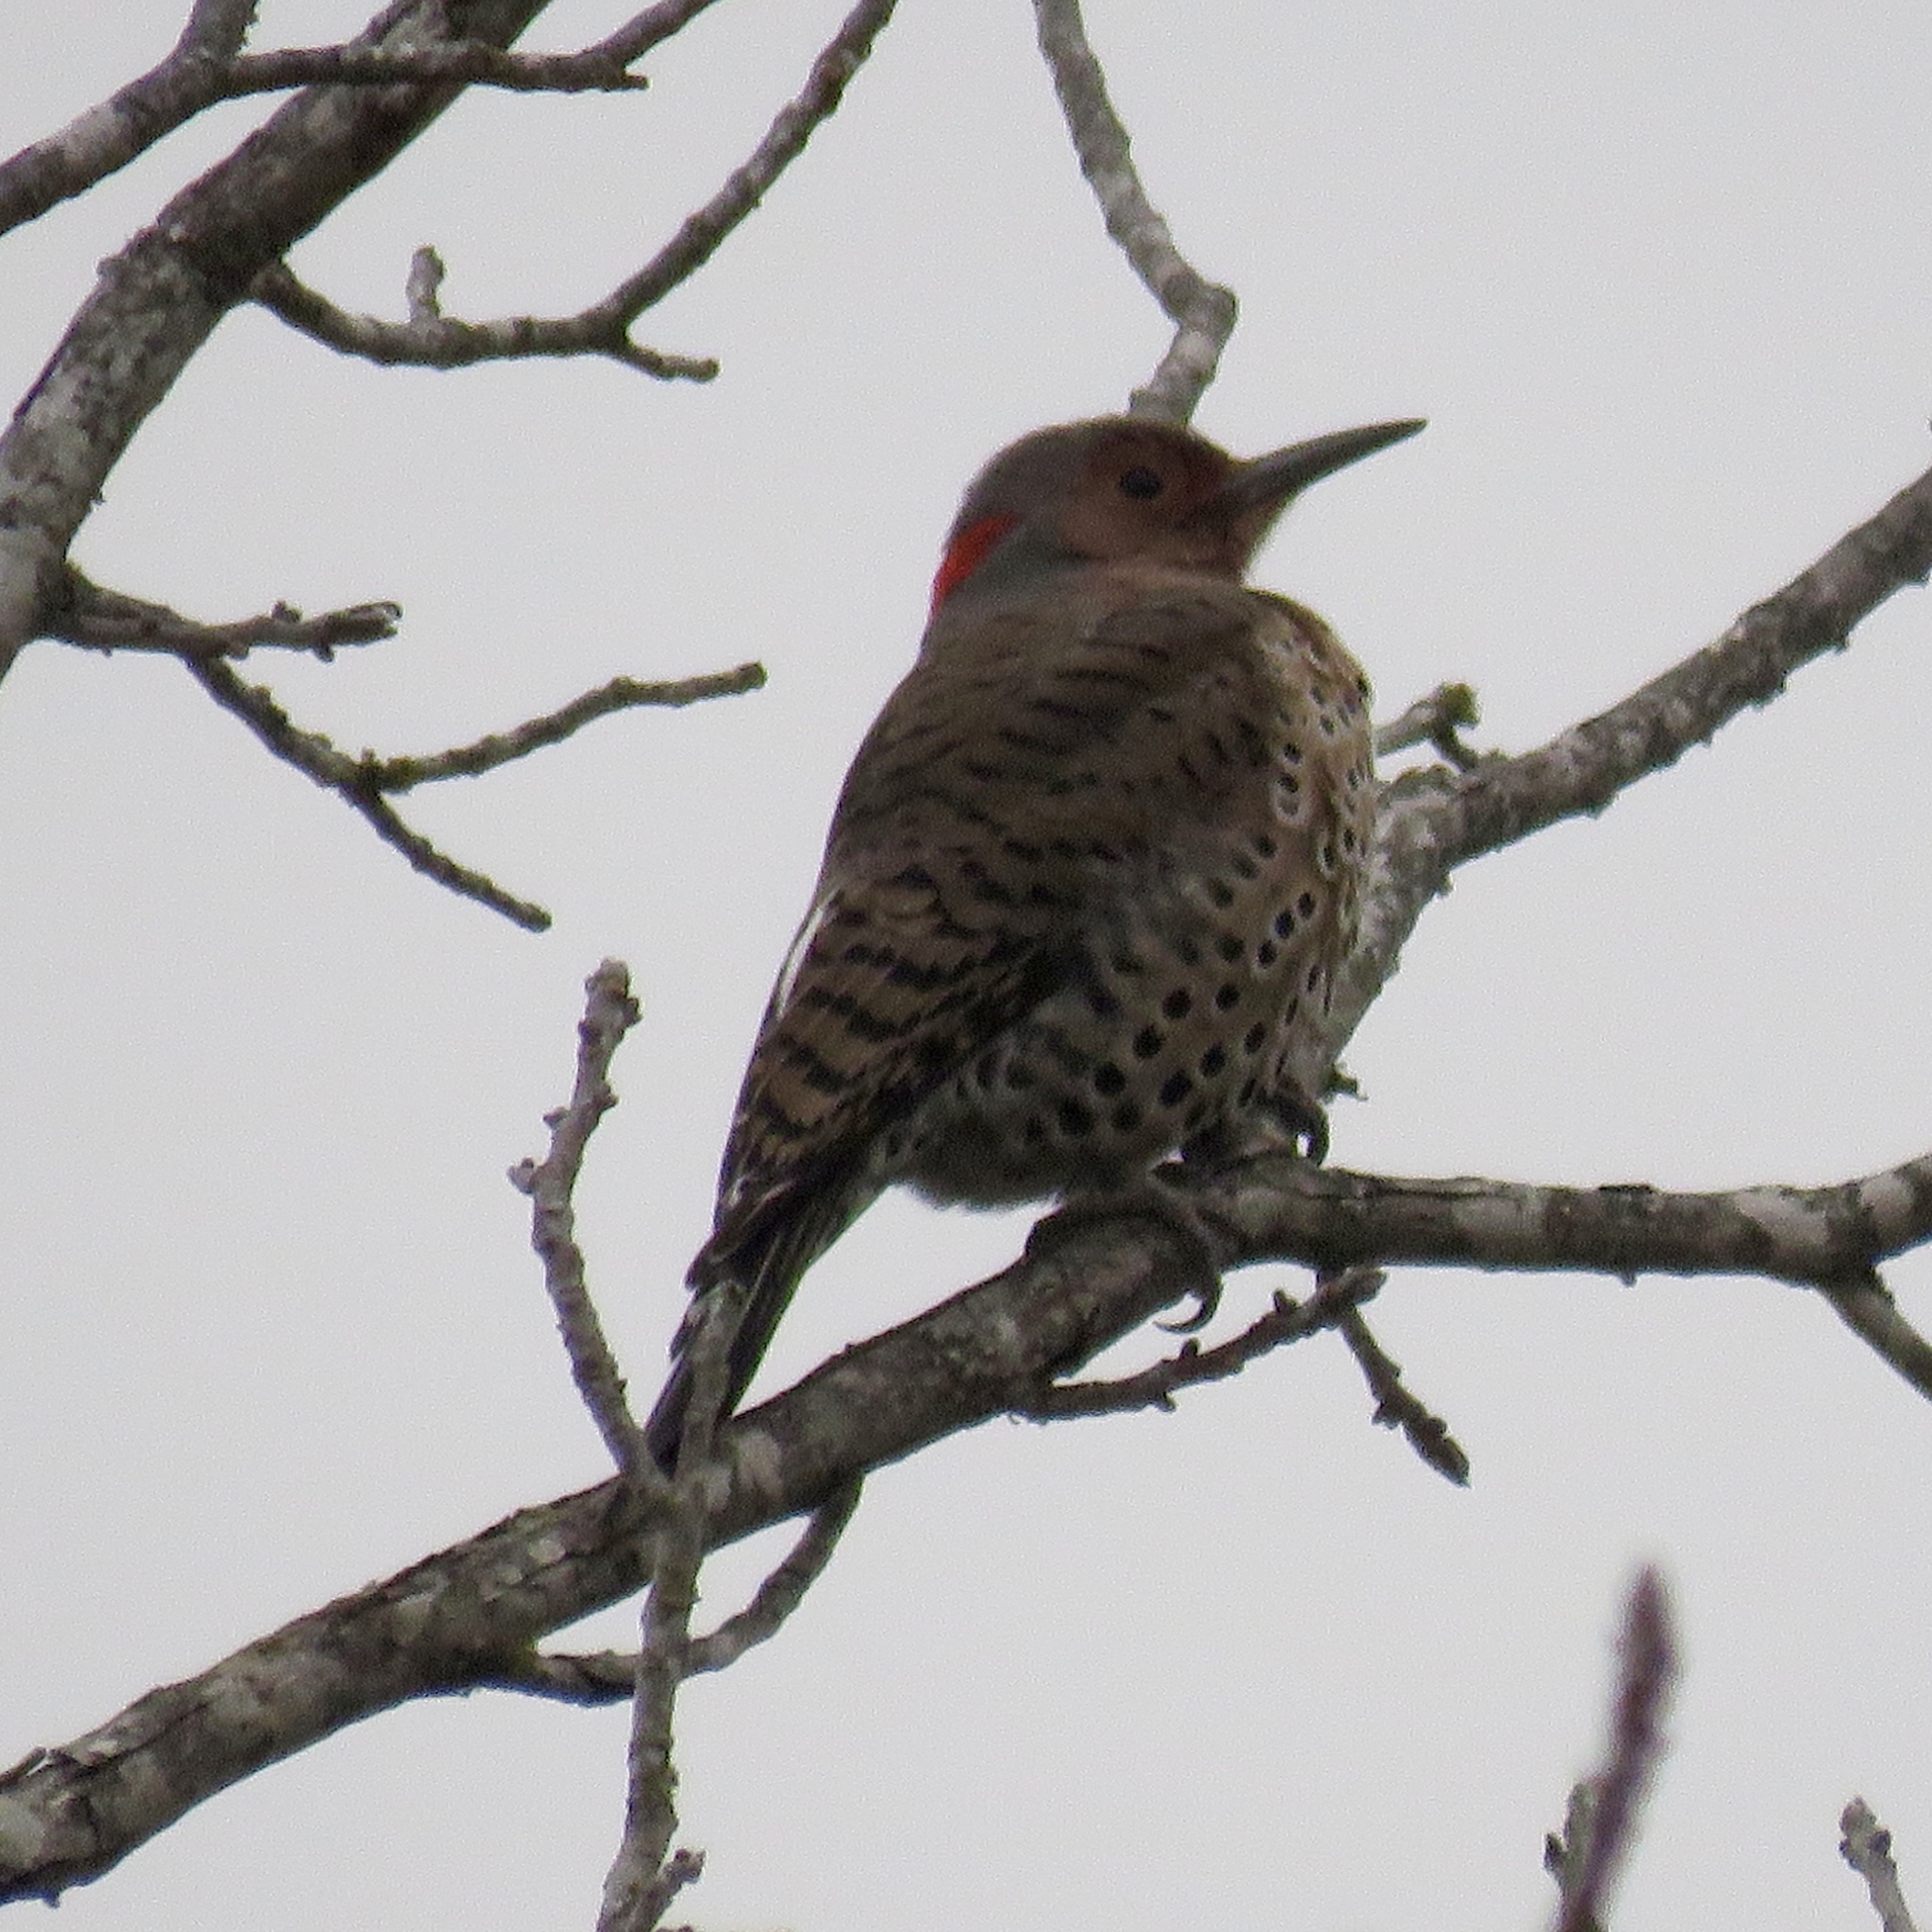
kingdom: Animalia
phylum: Chordata
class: Aves
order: Piciformes
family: Picidae
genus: Colaptes
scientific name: Colaptes auratus
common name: Northern flicker
